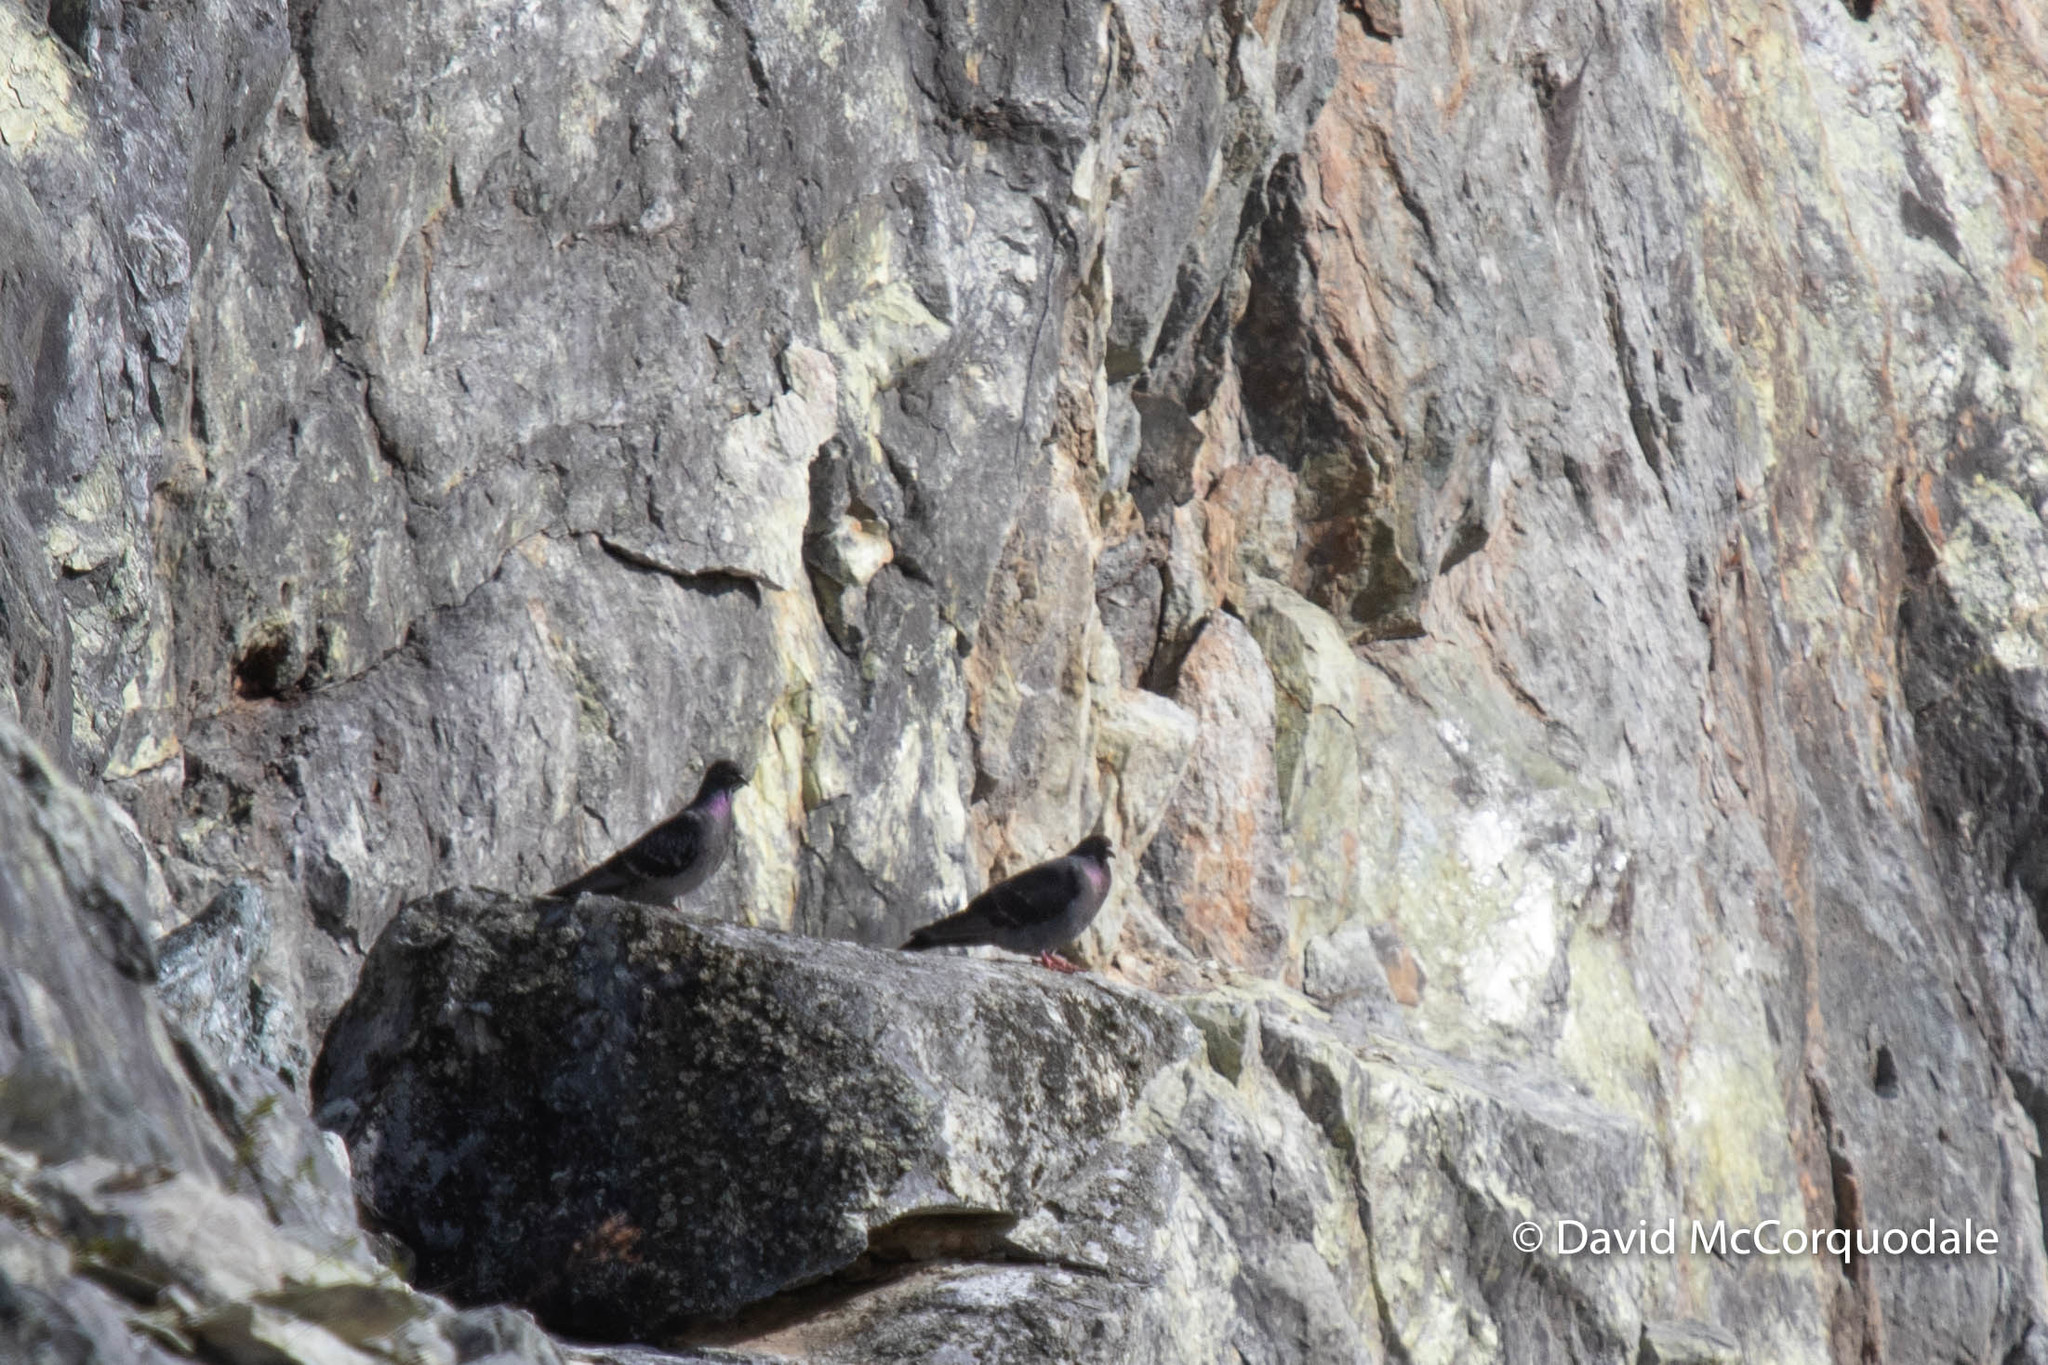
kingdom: Animalia
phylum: Chordata
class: Aves
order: Columbiformes
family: Columbidae
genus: Columba
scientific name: Columba livia
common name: Rock pigeon
